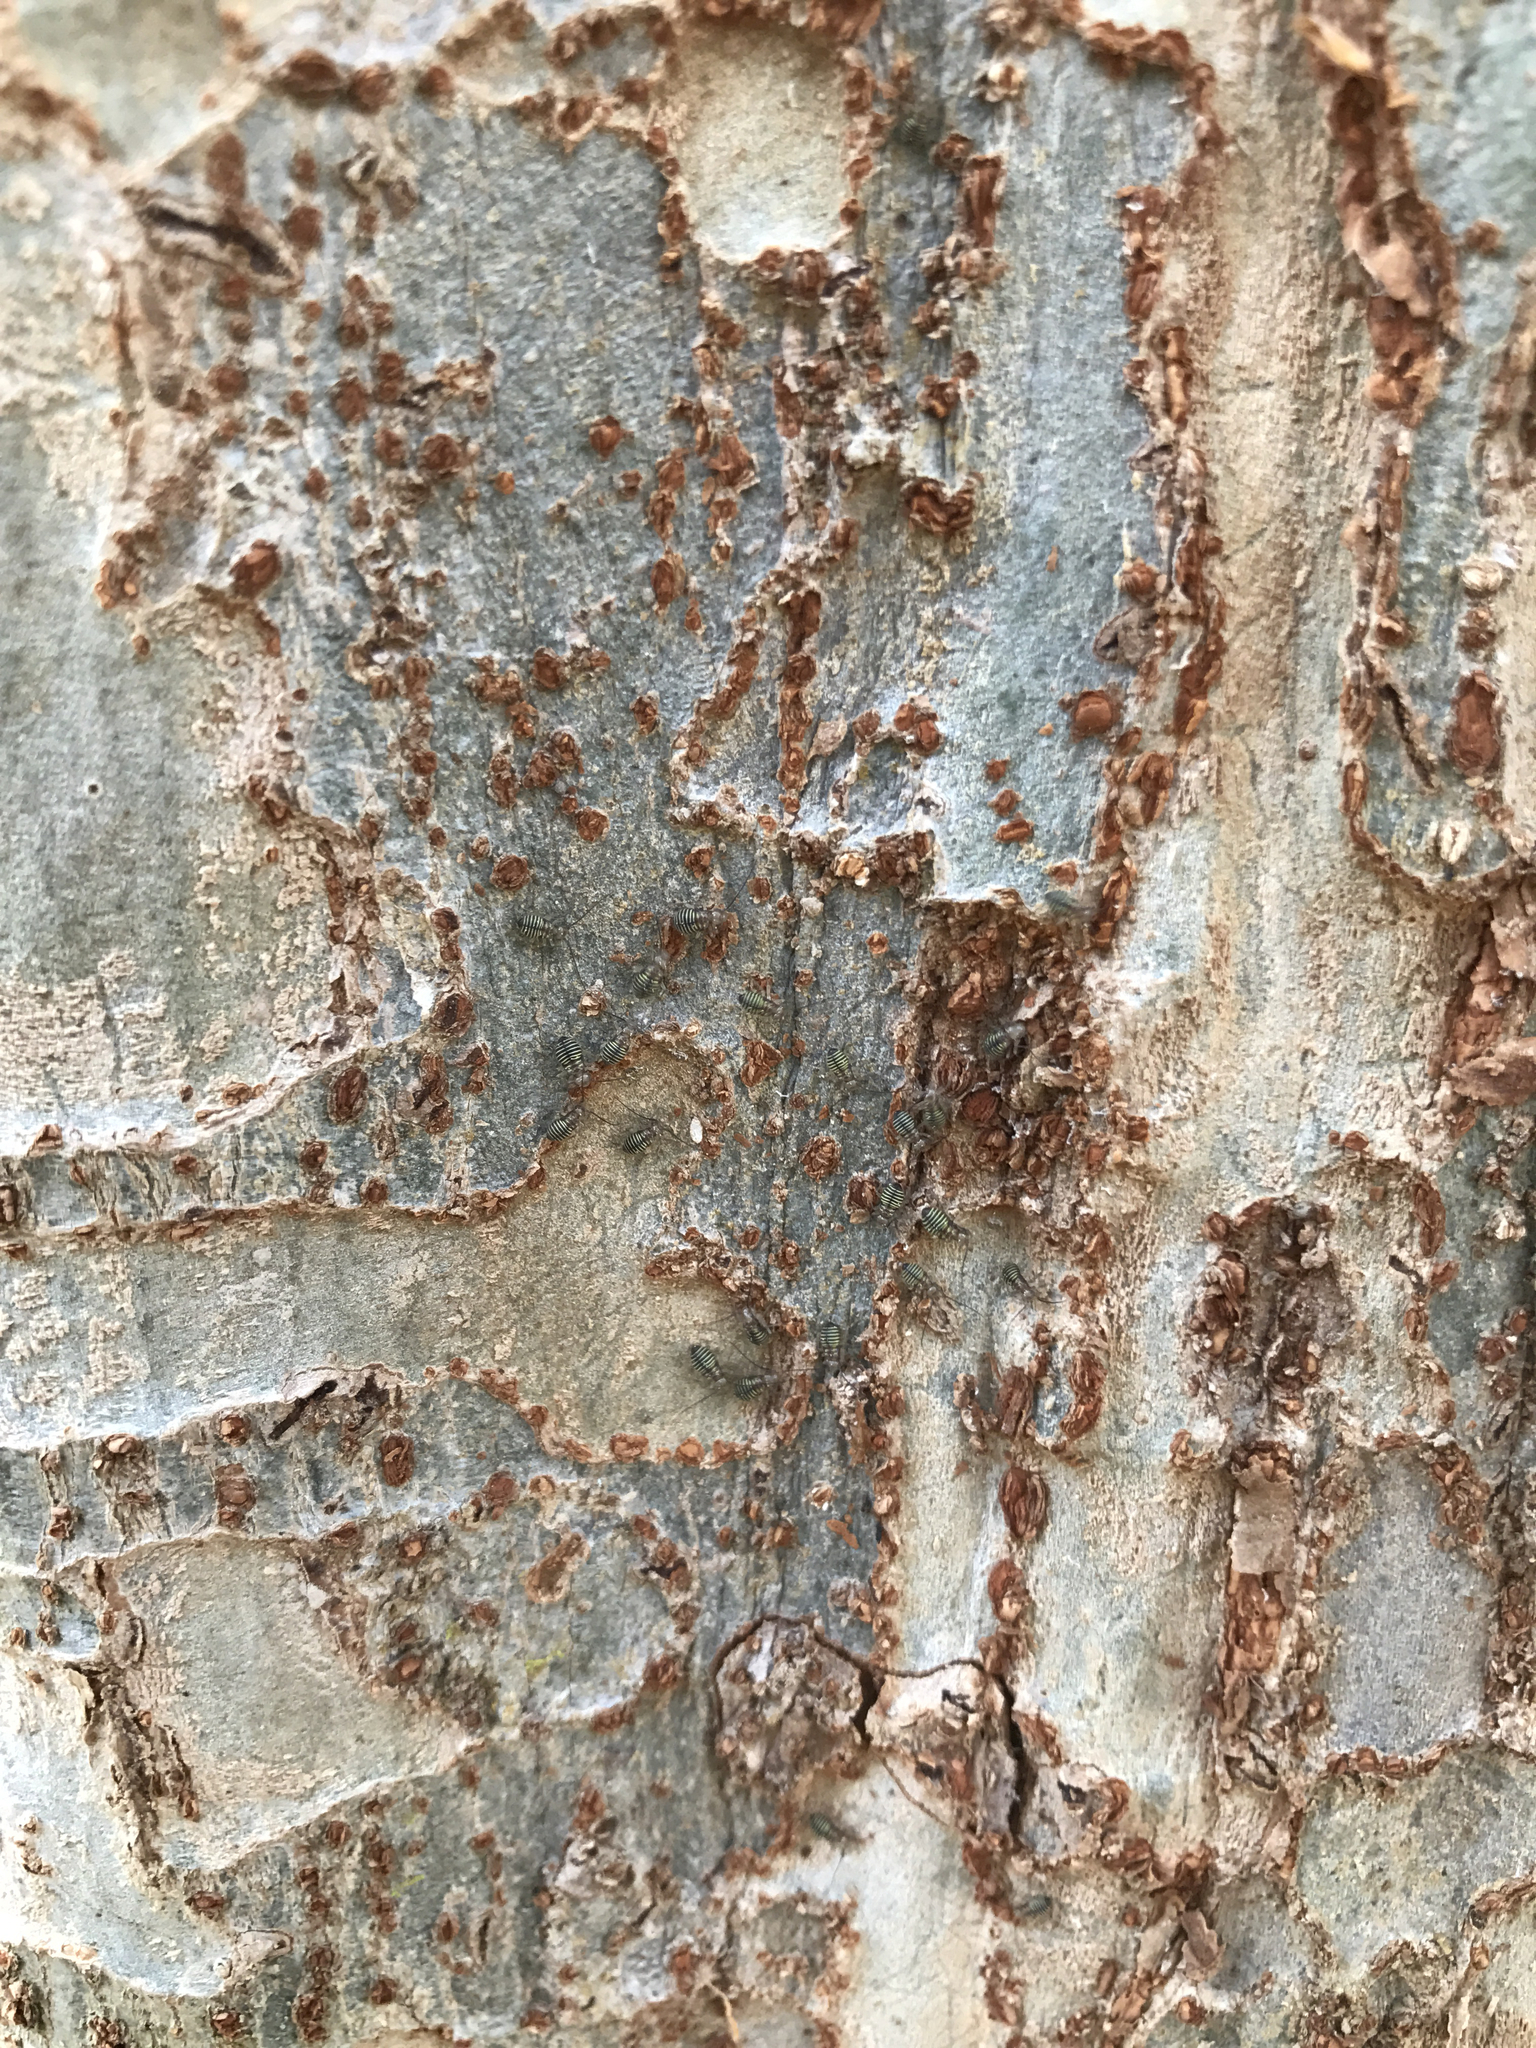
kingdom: Animalia
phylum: Arthropoda
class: Insecta
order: Psocodea
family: Psocidae
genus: Cerastipsocus
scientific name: Cerastipsocus venosus
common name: Tree cattle
